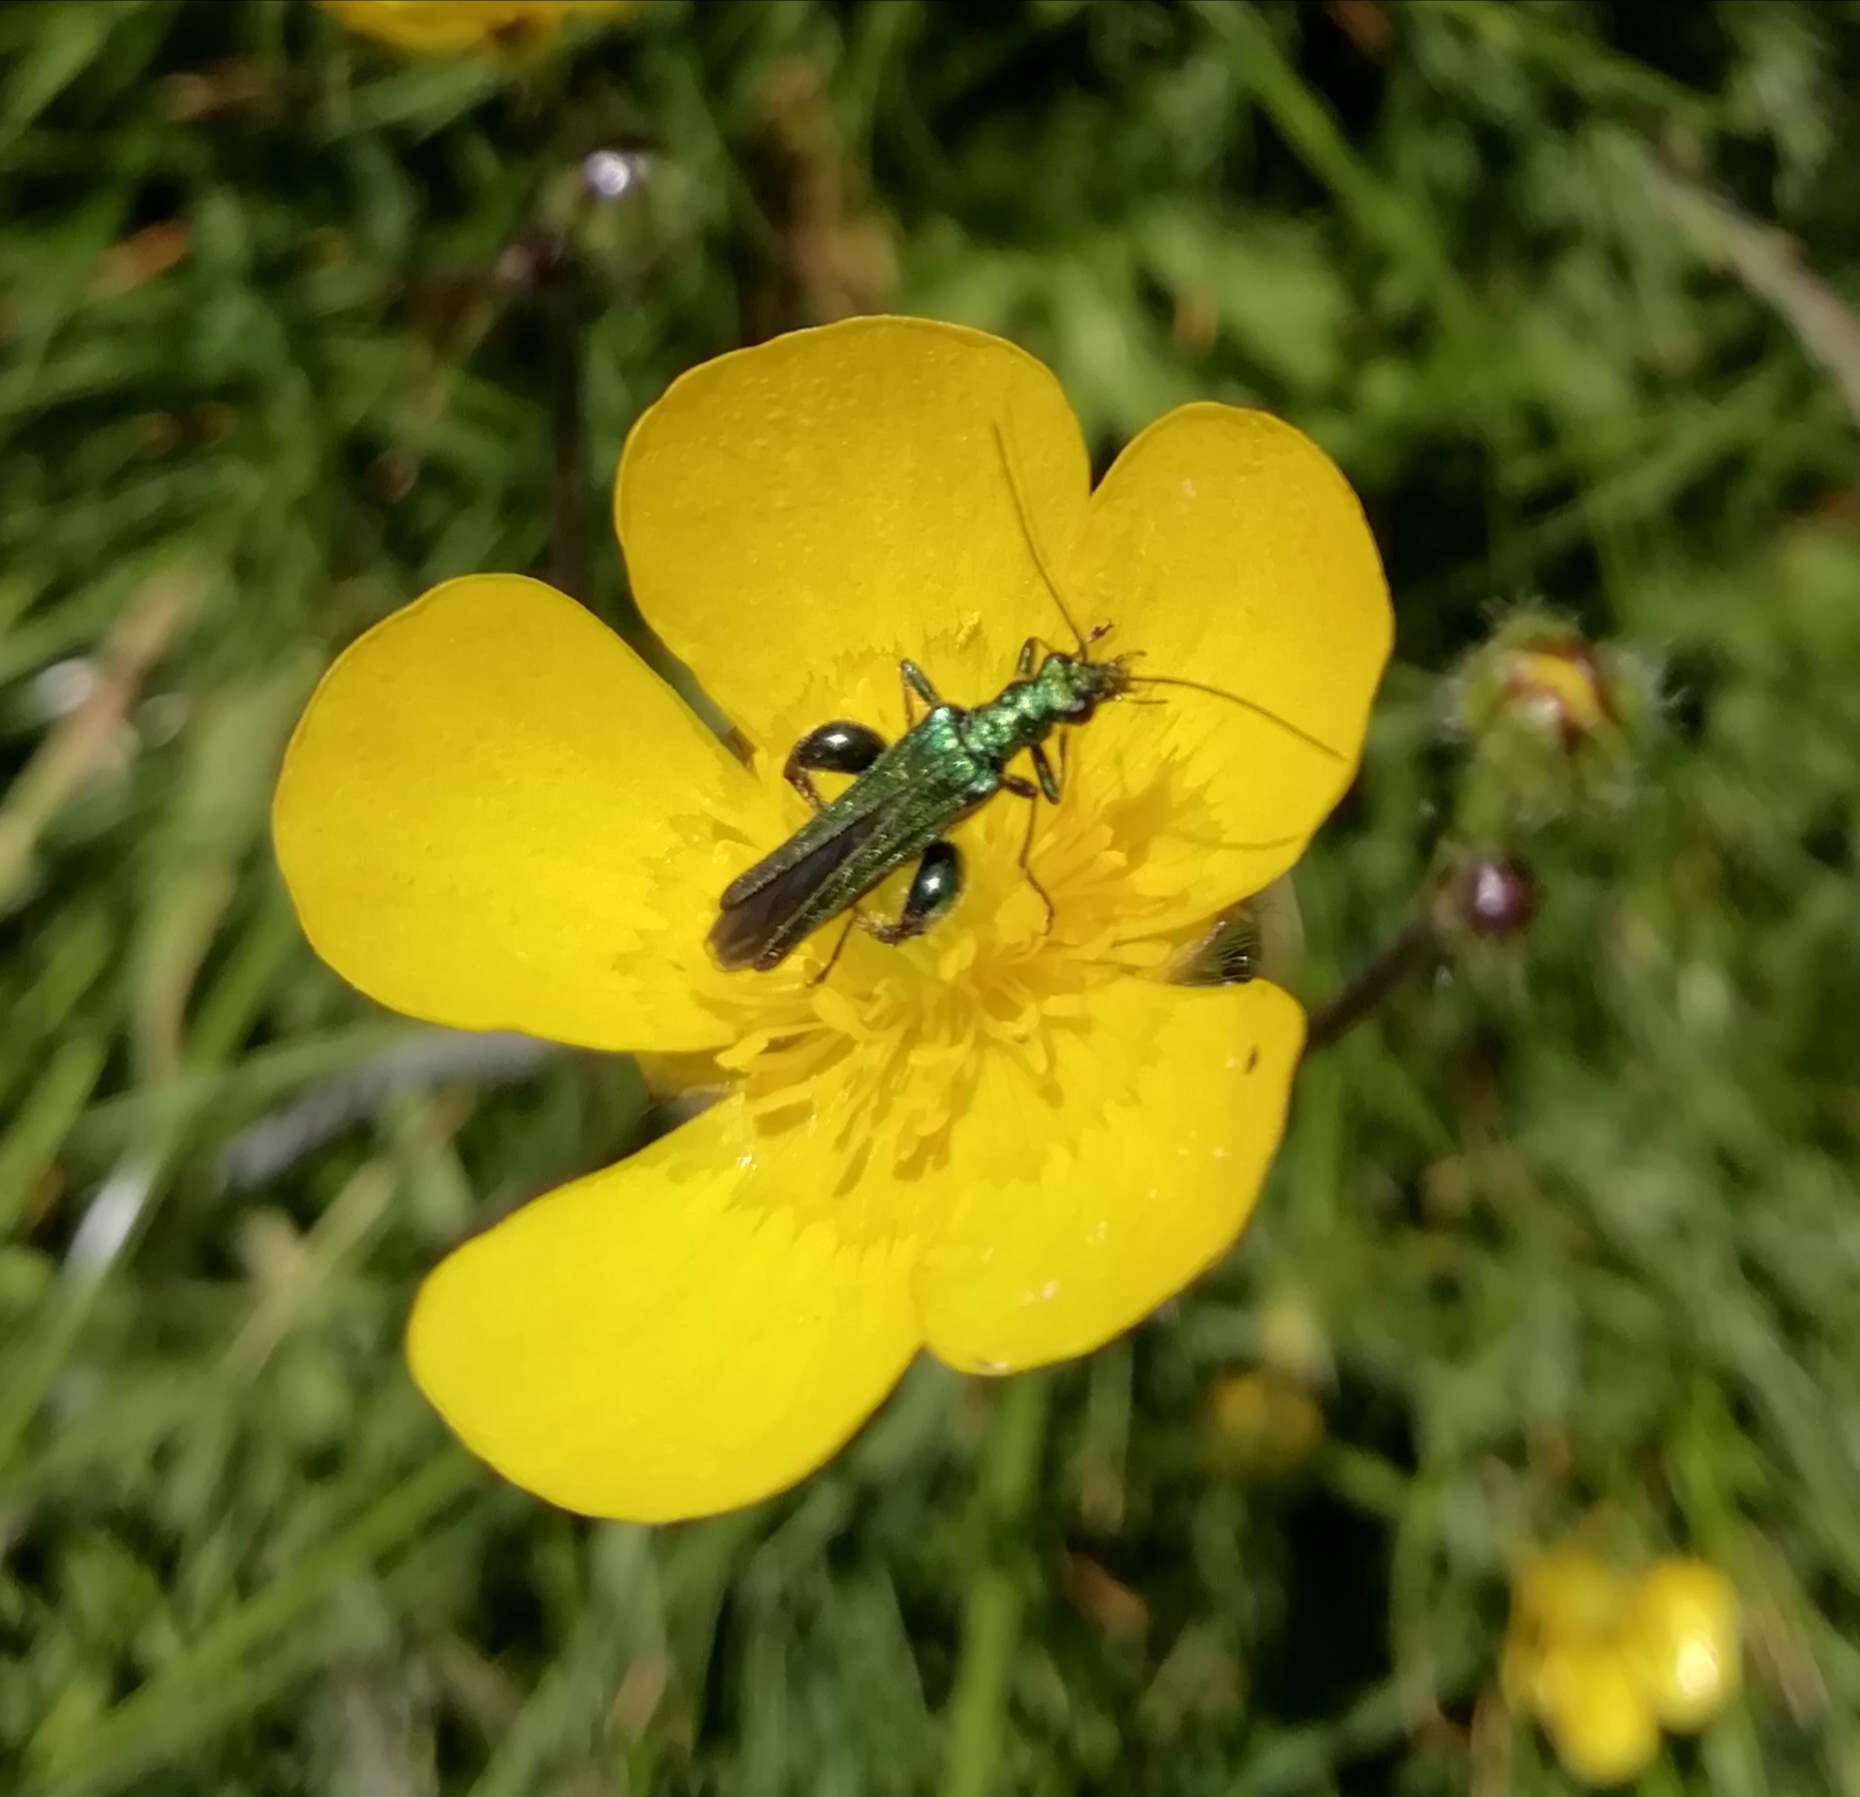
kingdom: Animalia
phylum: Arthropoda
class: Insecta
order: Coleoptera
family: Oedemeridae
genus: Oedemera
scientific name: Oedemera nobilis
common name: Swollen-thighed beetle
